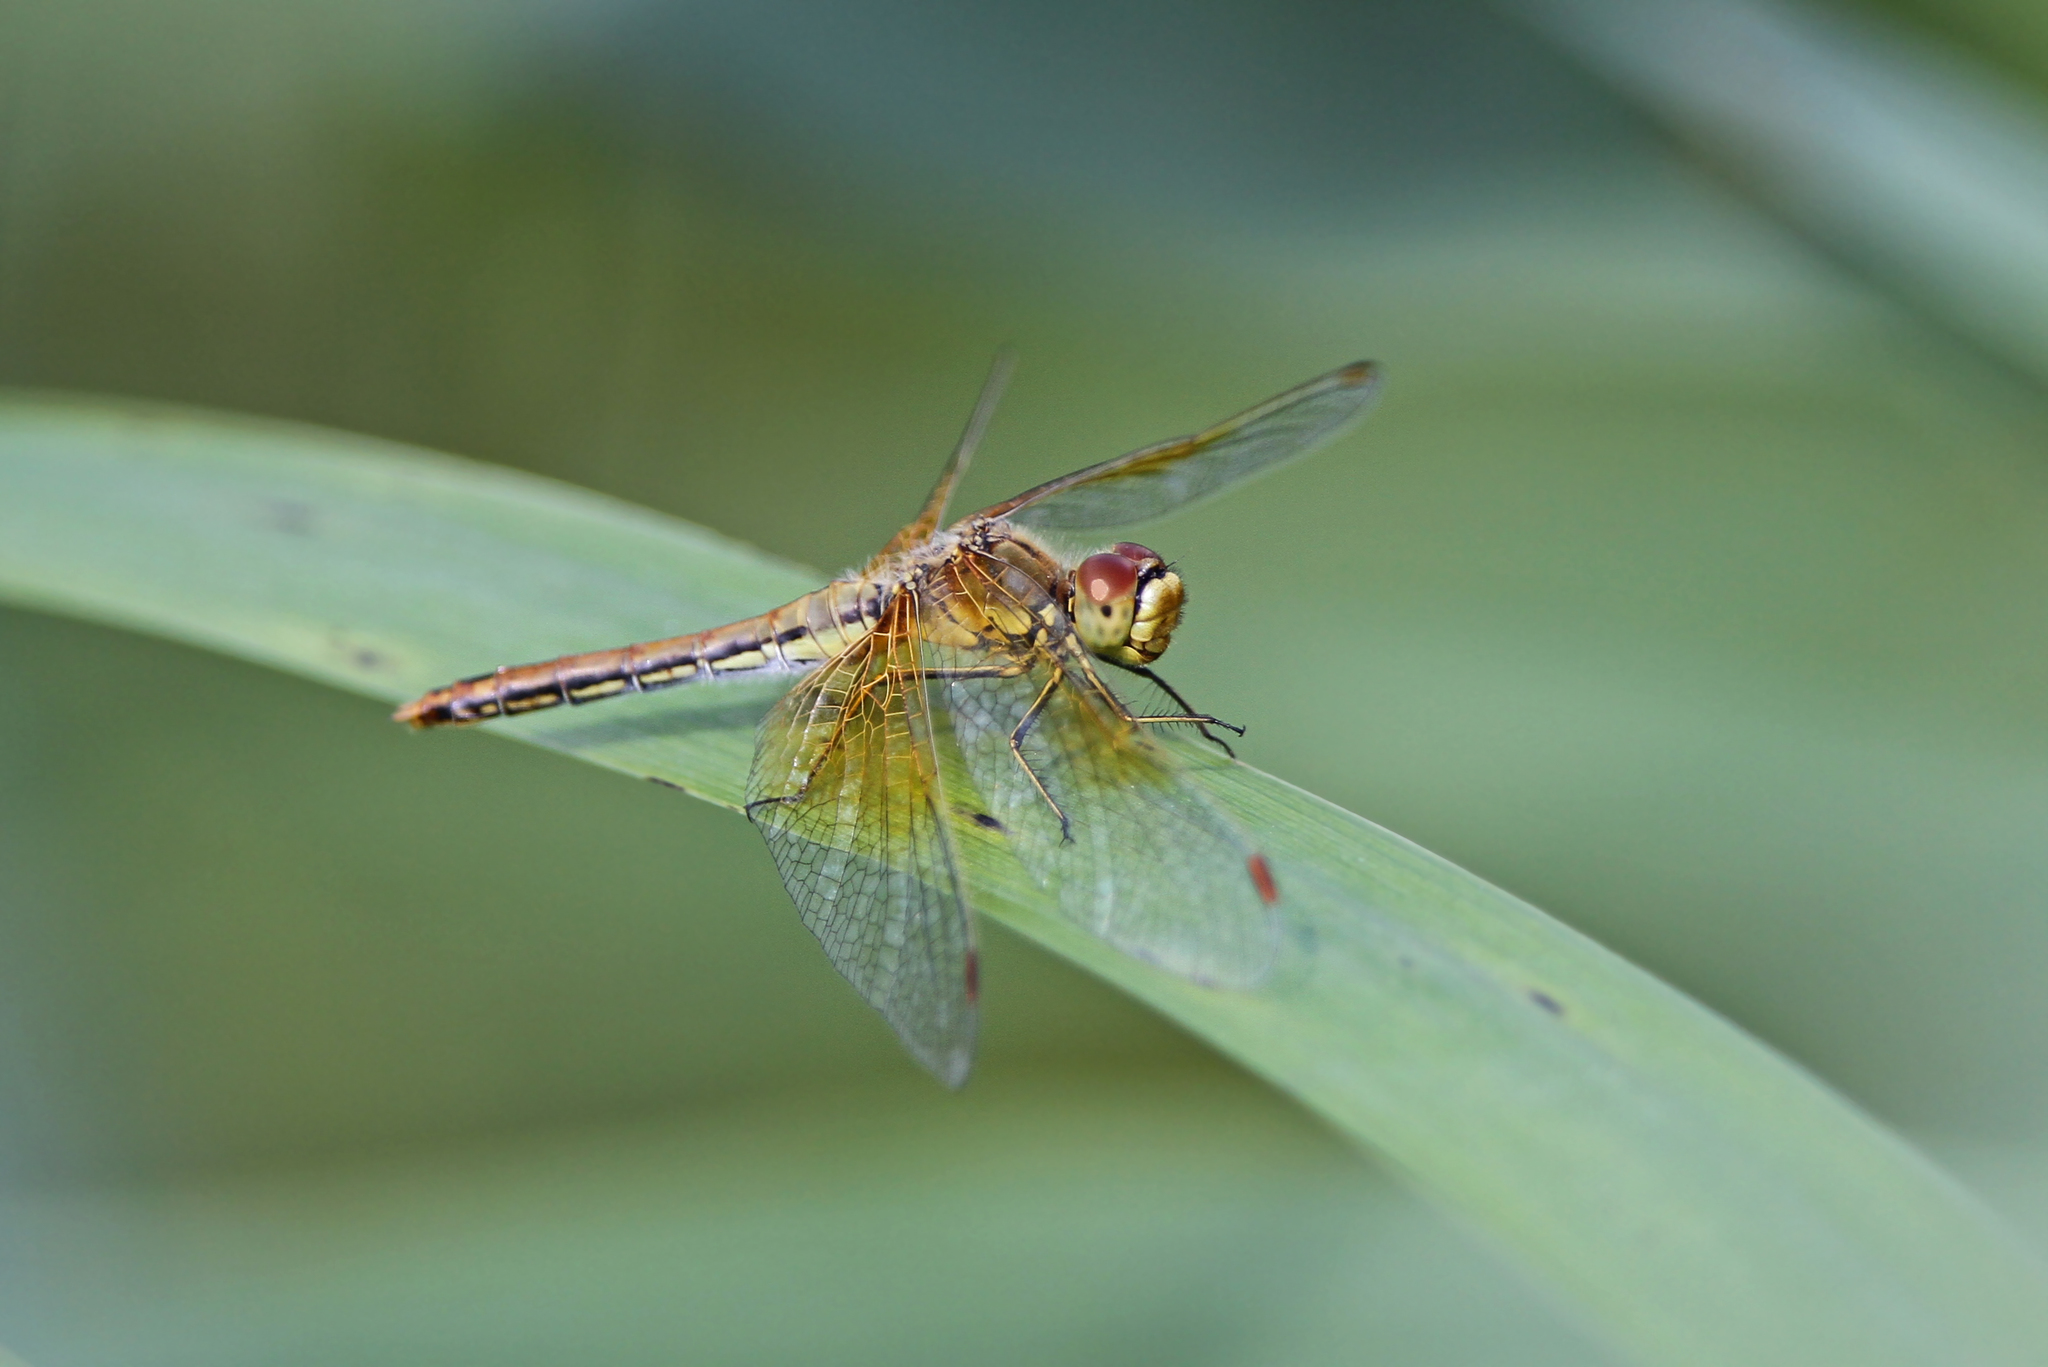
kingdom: Animalia
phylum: Arthropoda
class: Insecta
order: Odonata
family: Libellulidae
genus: Sympetrum
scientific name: Sympetrum flaveolum
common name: Yellow-winged darter
